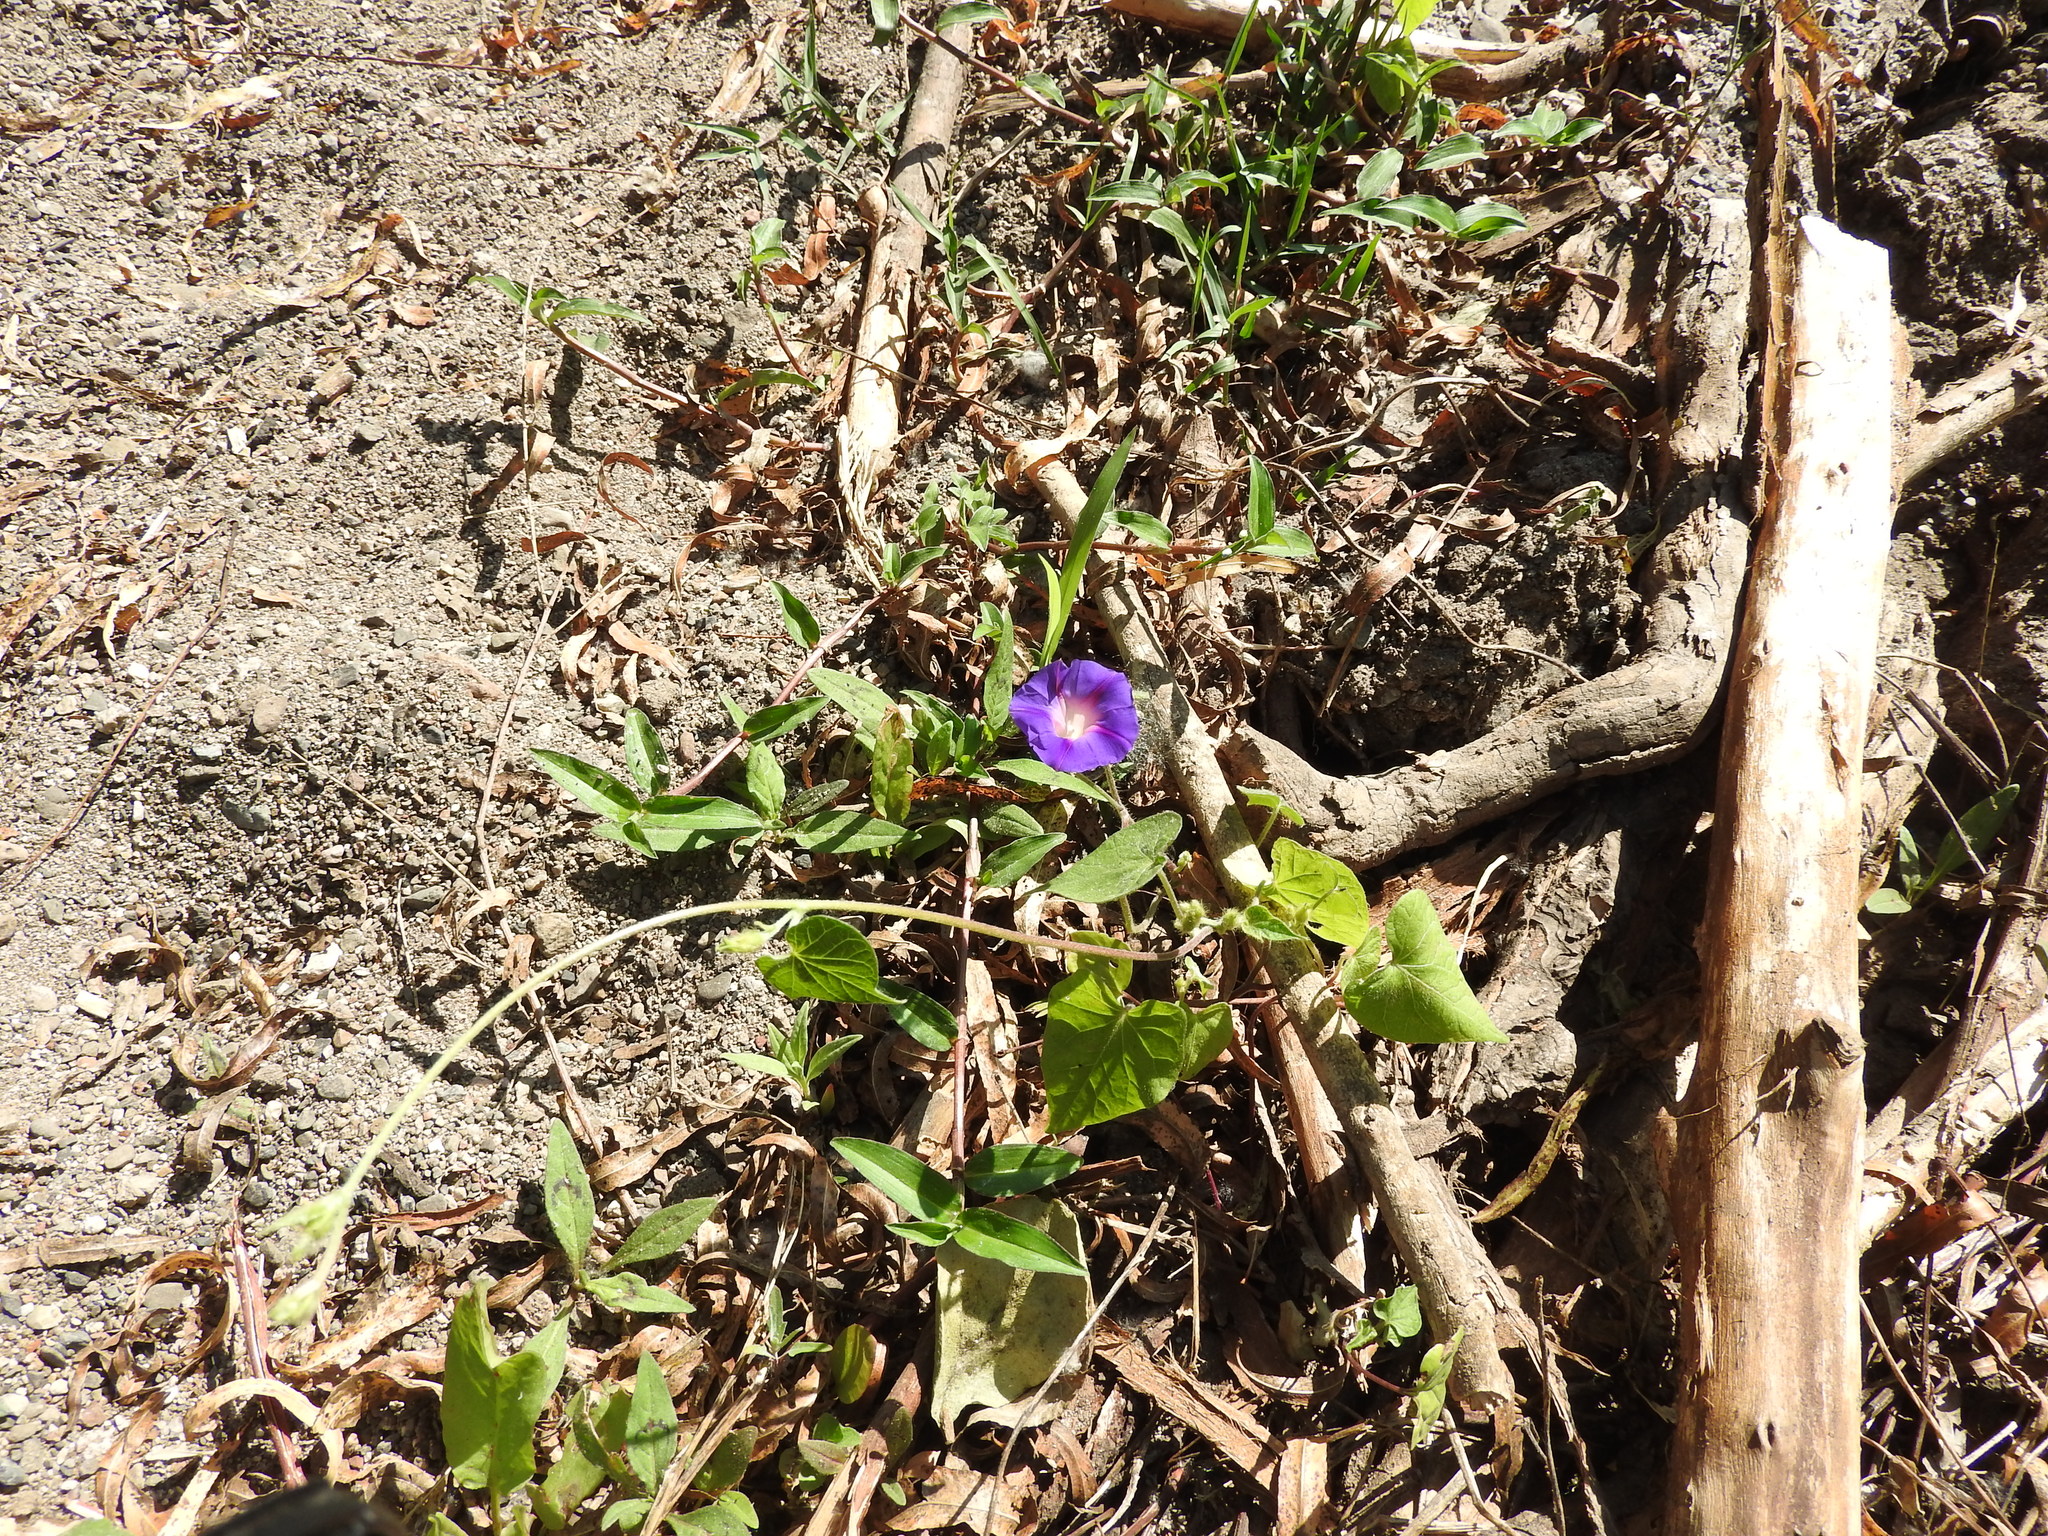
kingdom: Plantae
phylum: Tracheophyta
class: Magnoliopsida
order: Solanales
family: Convolvulaceae
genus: Ipomoea
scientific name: Ipomoea purpurea
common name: Common morning-glory
